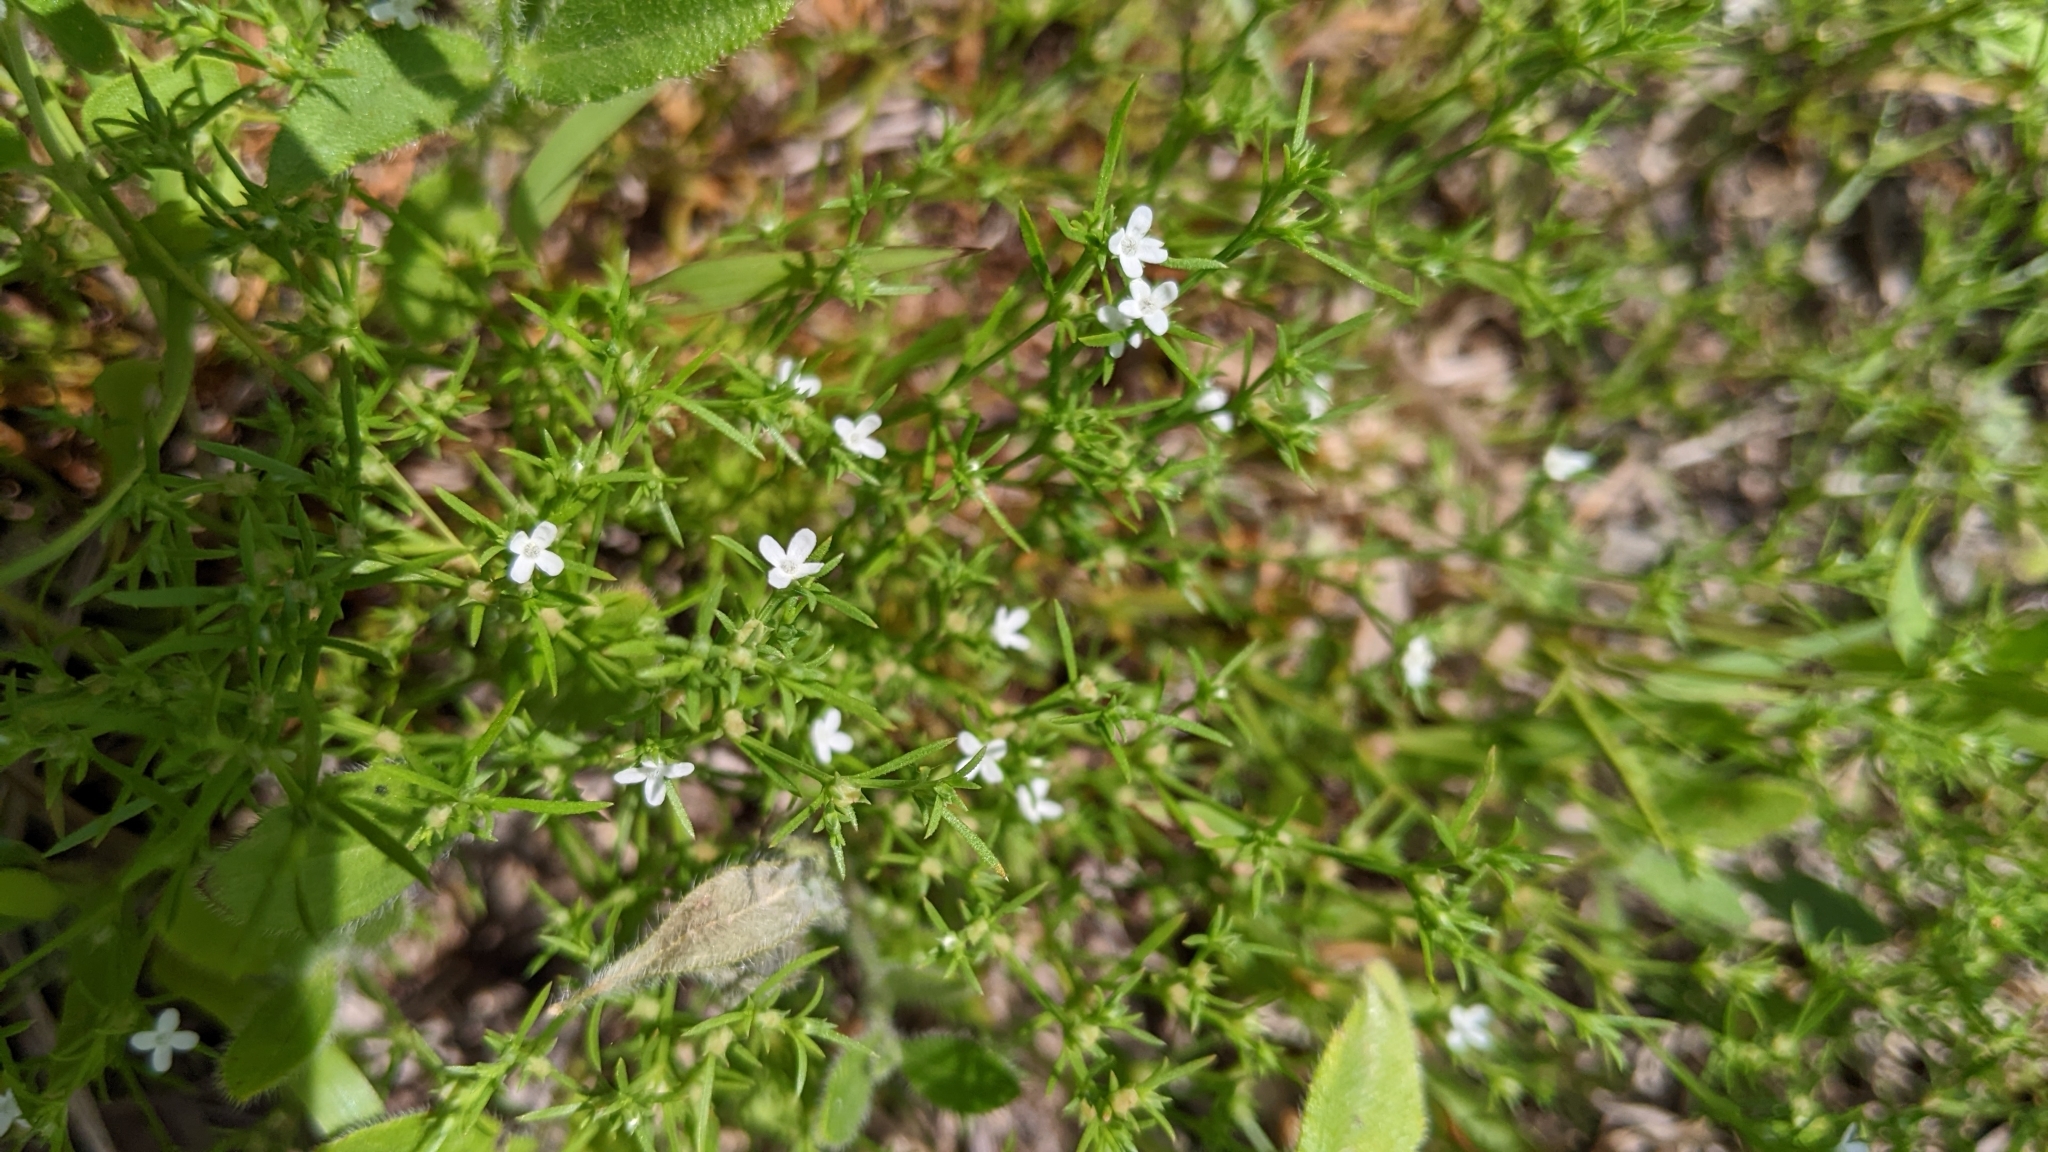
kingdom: Plantae
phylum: Tracheophyta
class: Magnoliopsida
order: Lamiales
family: Tetrachondraceae
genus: Polypremum
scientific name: Polypremum procumbens
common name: Juniper-leaf
